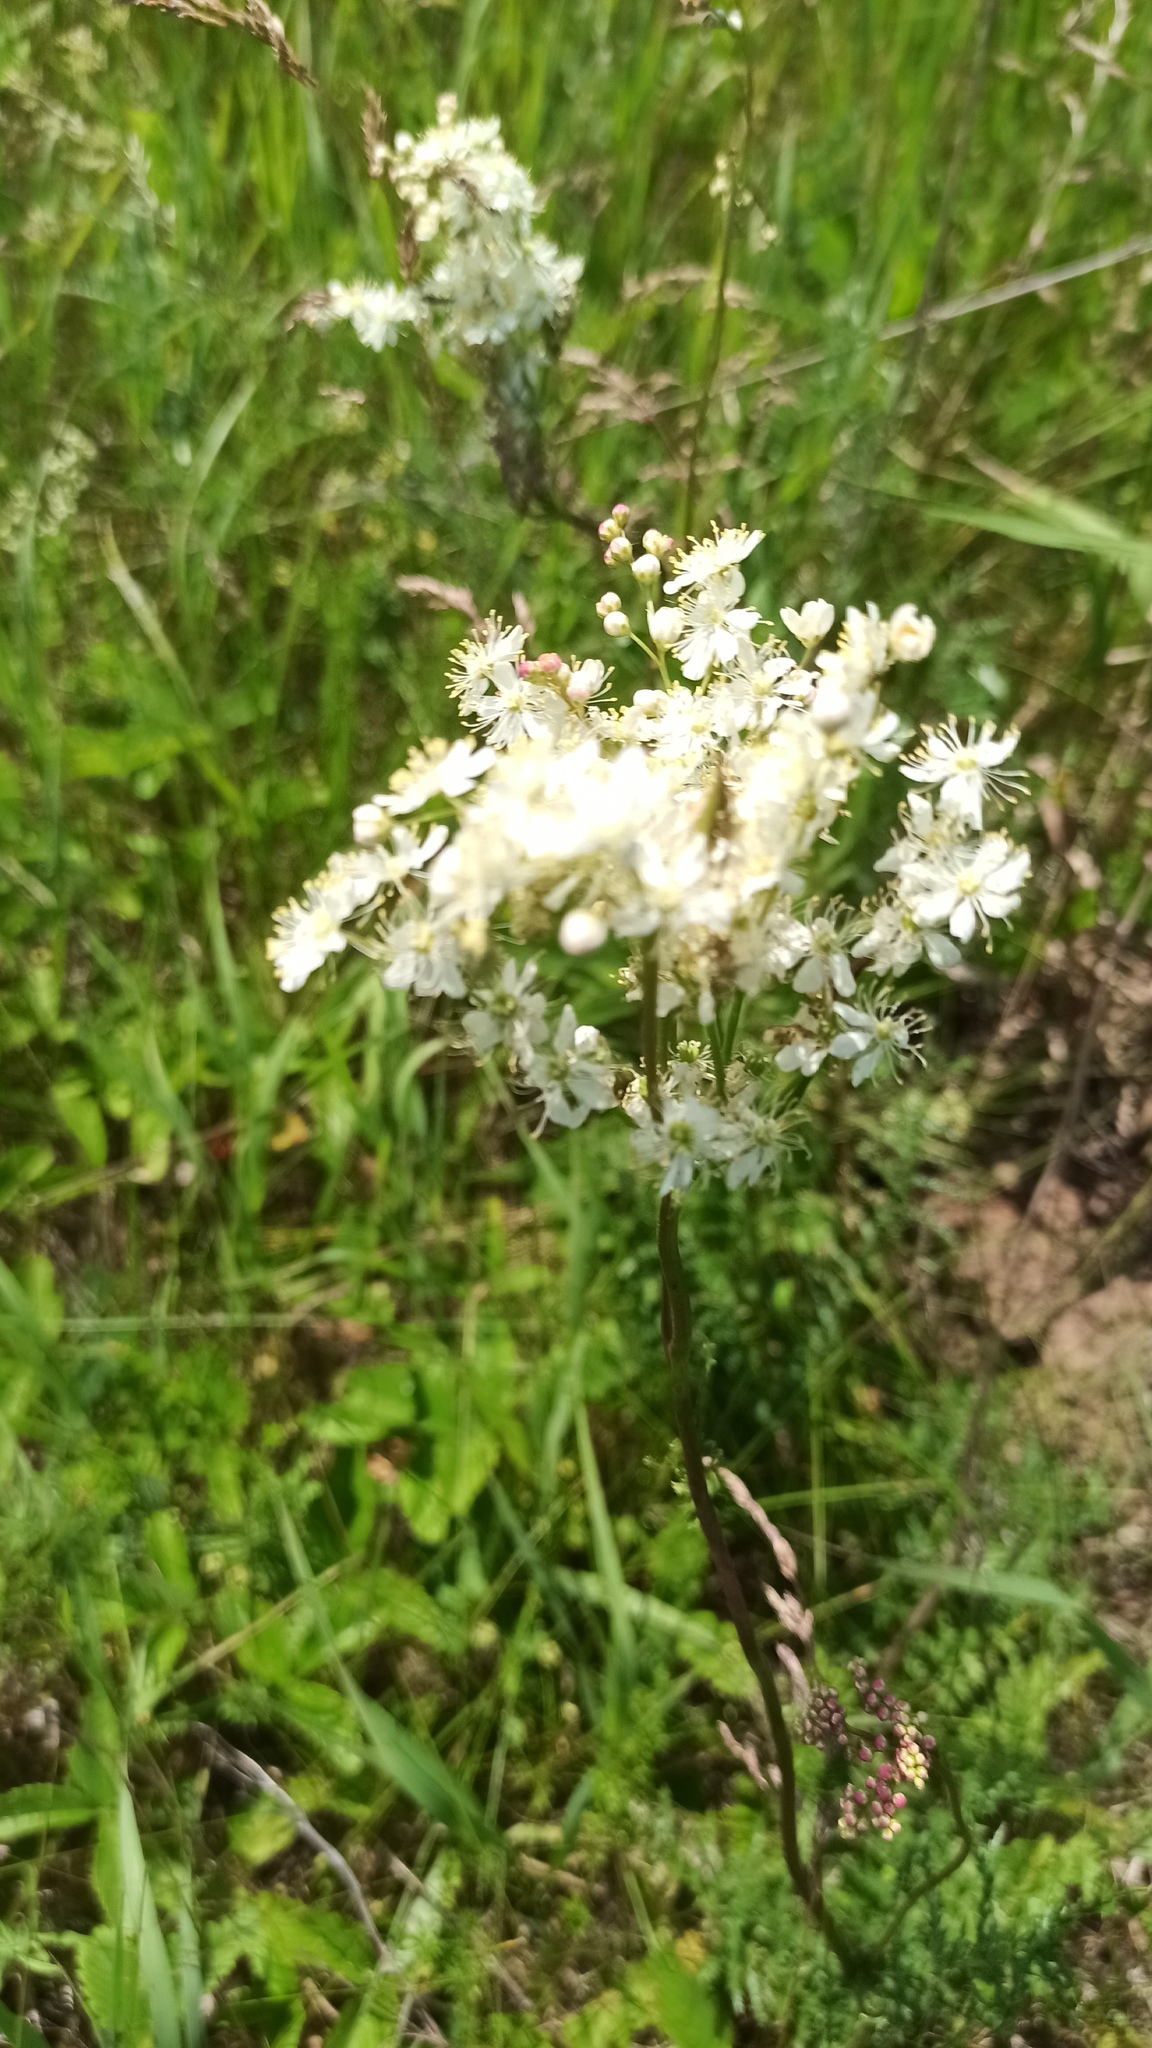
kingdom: Plantae
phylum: Tracheophyta
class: Magnoliopsida
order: Rosales
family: Rosaceae
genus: Filipendula
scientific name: Filipendula vulgaris
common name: Dropwort
